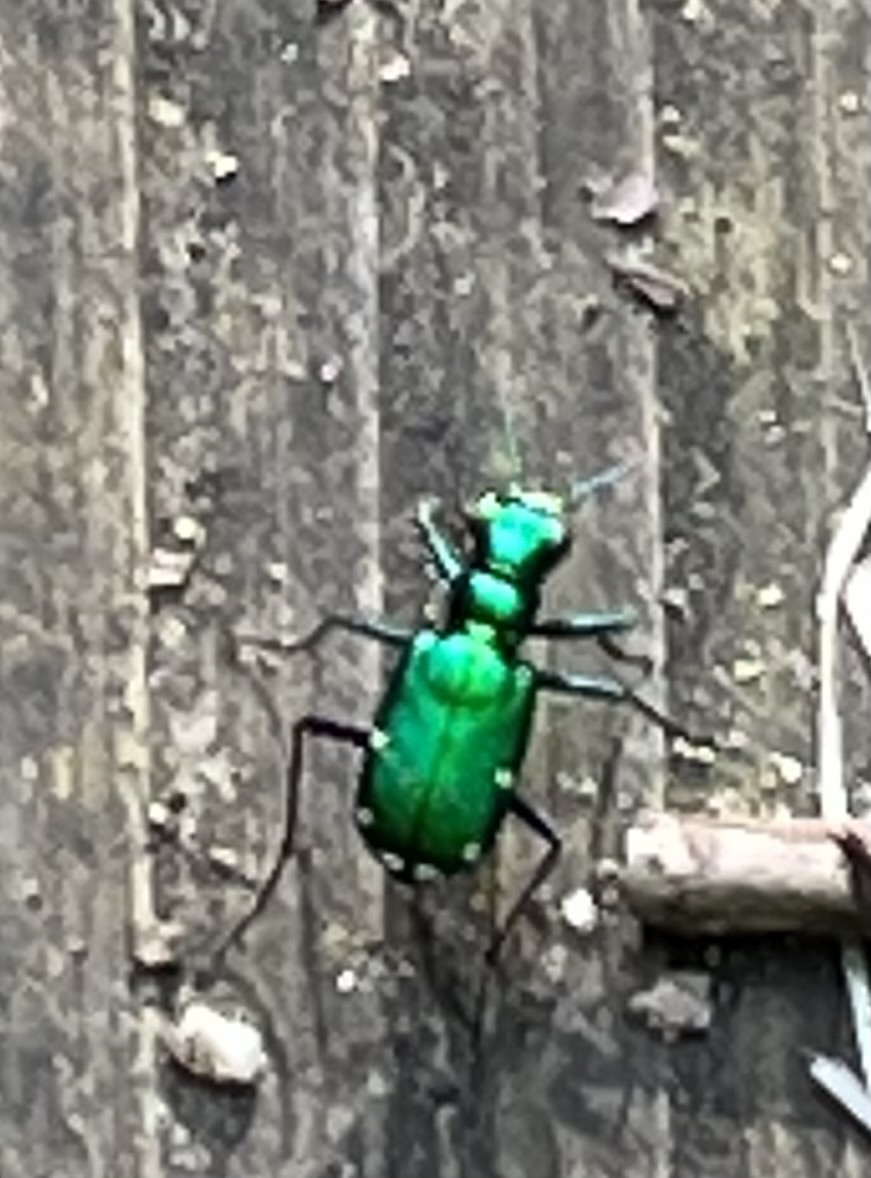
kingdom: Animalia
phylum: Arthropoda
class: Insecta
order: Coleoptera
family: Carabidae
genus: Cicindela
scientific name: Cicindela sexguttata
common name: Six-spotted tiger beetle
